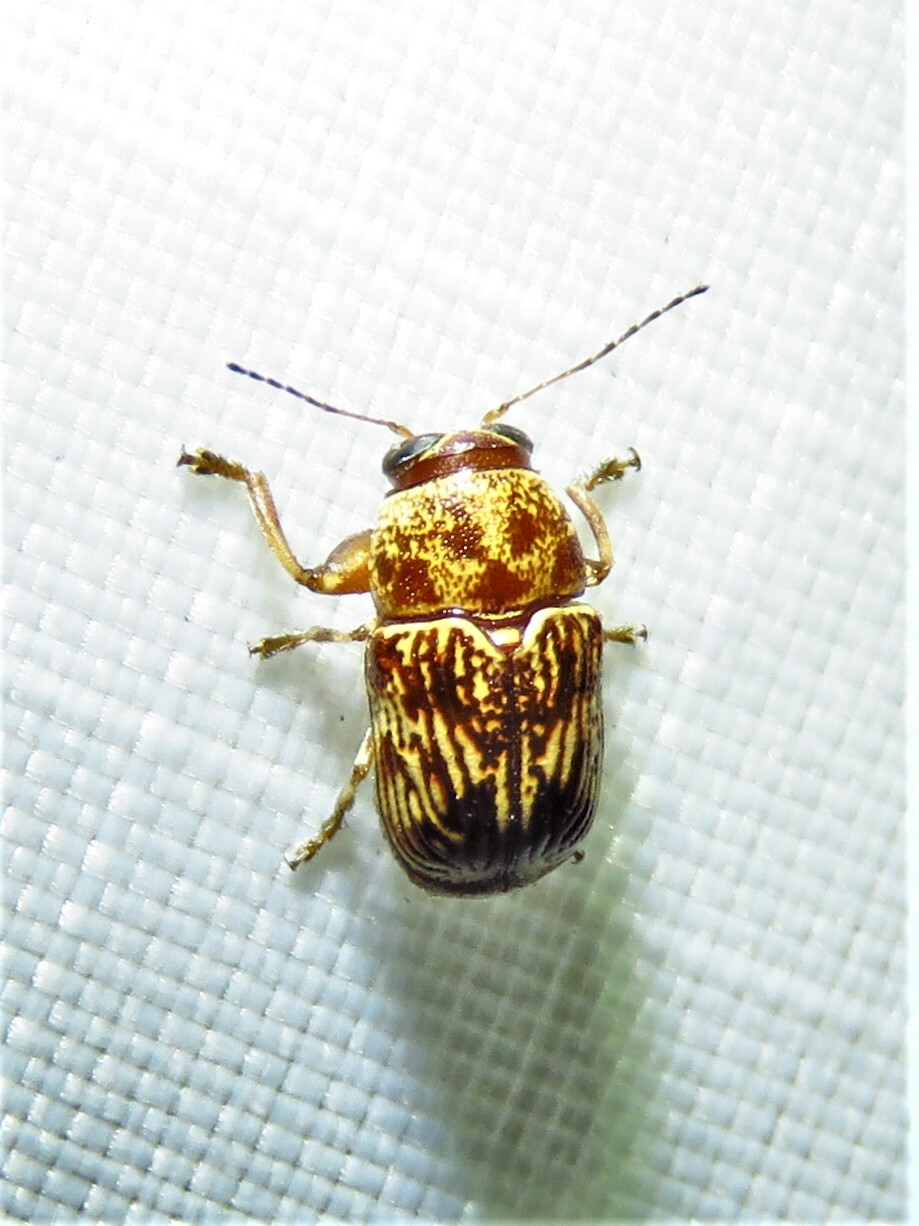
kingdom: Animalia
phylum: Arthropoda
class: Insecta
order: Coleoptera
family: Chrysomelidae
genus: Pachybrachis
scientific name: Pachybrachis
